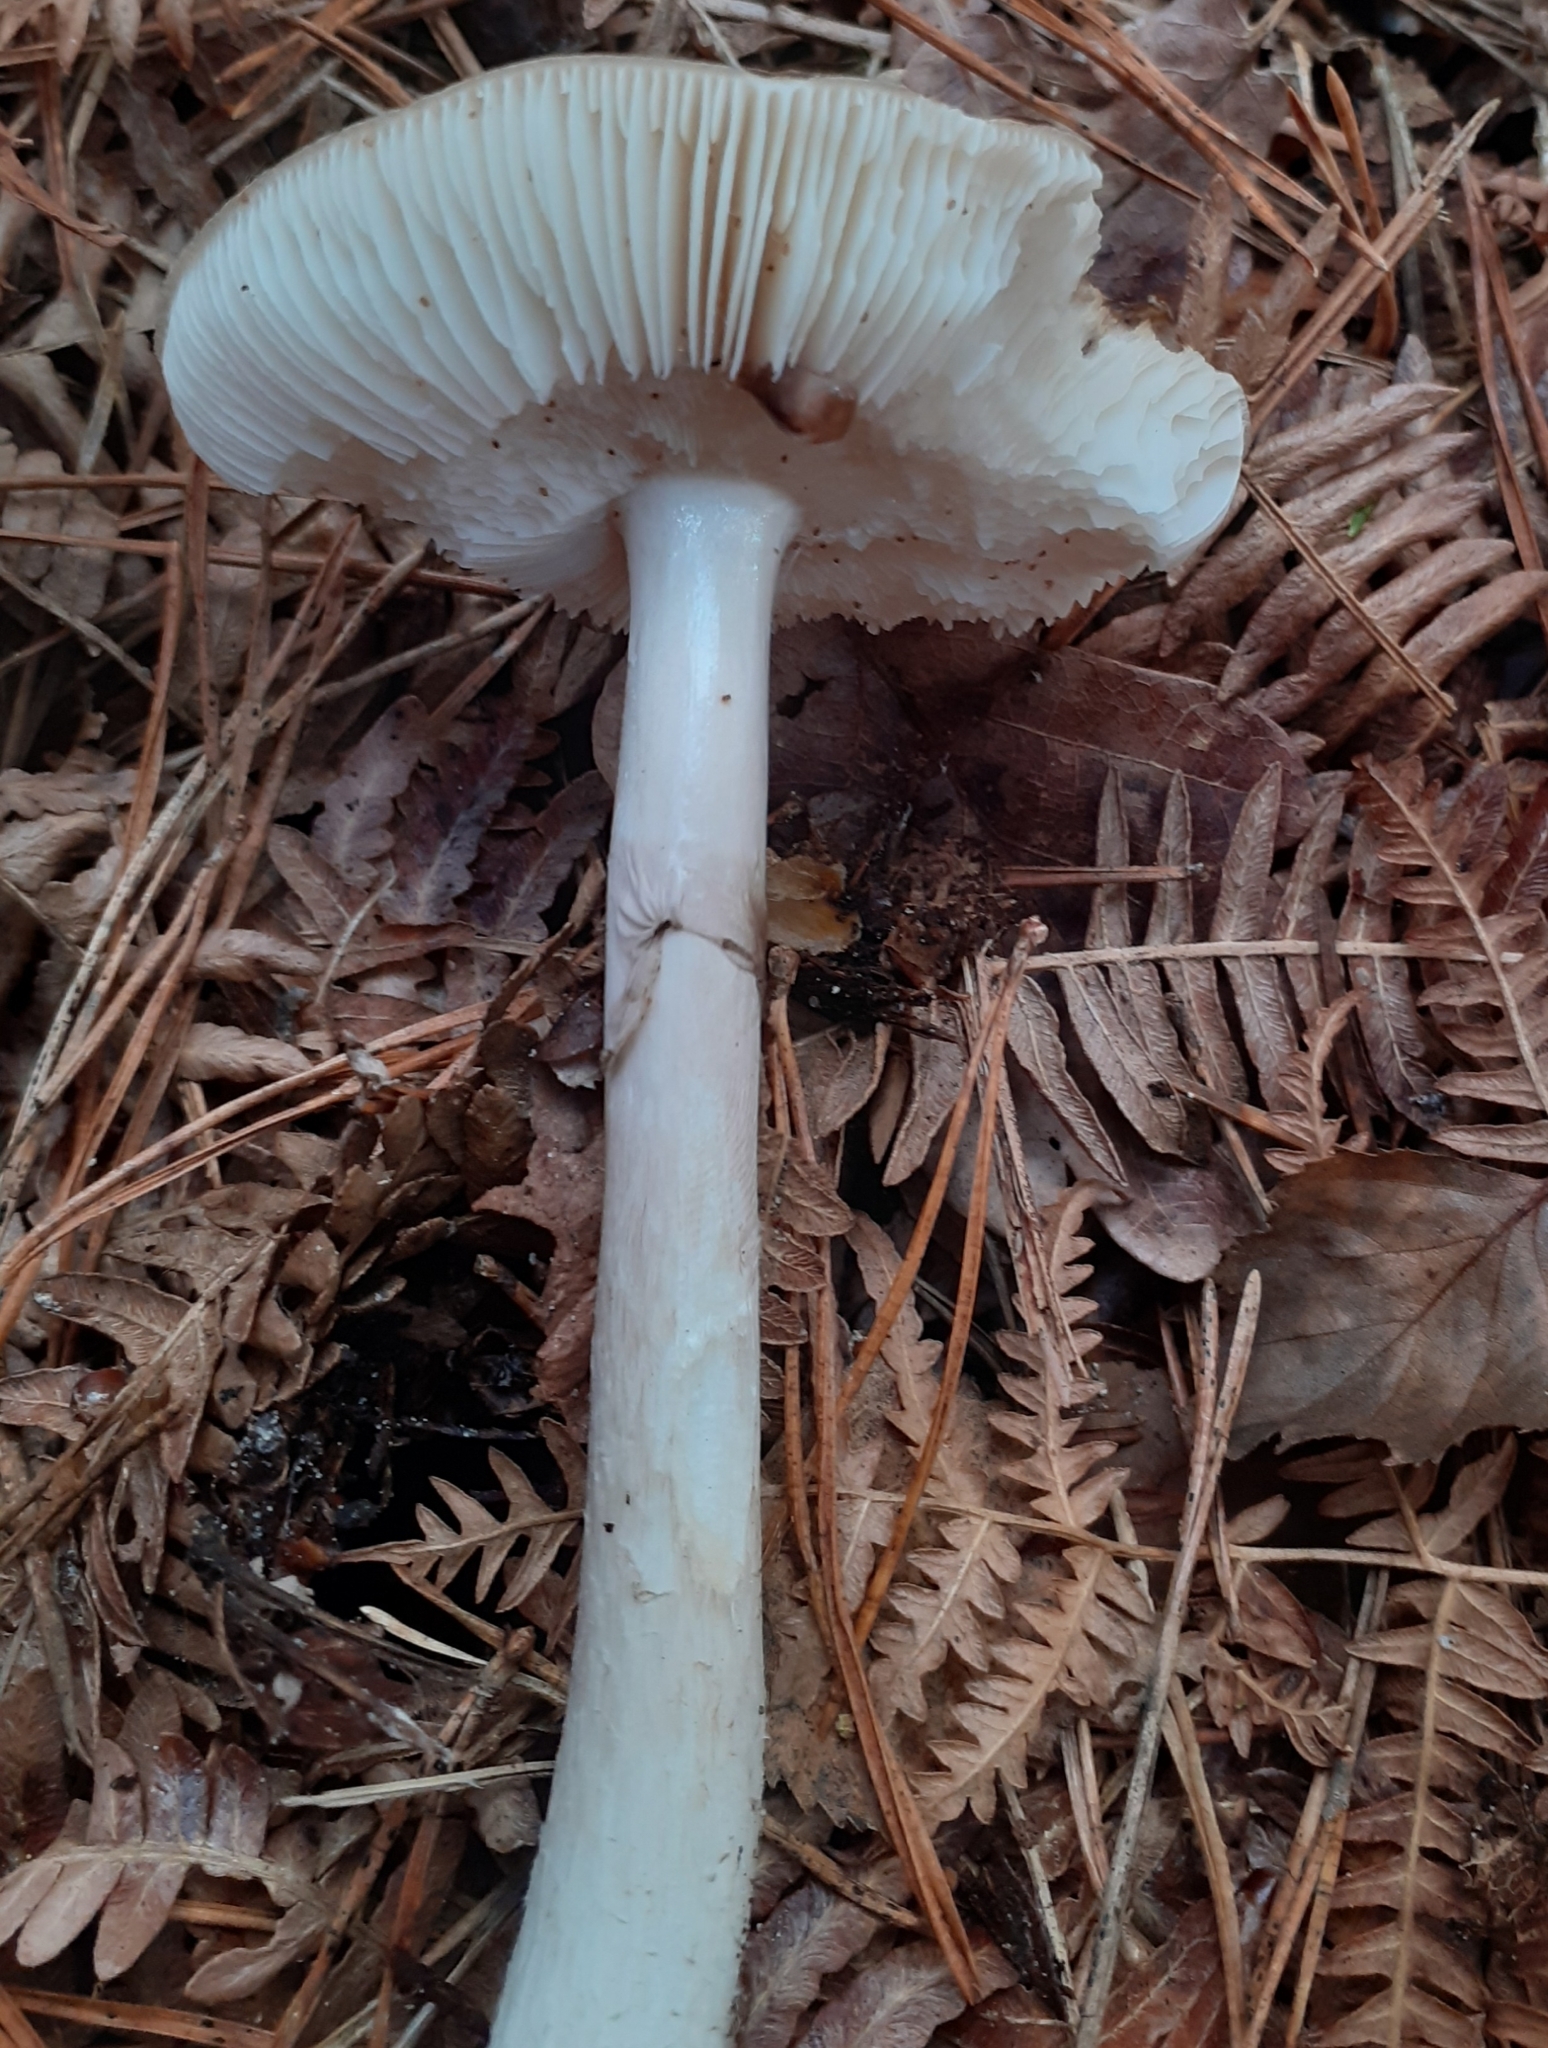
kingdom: Fungi
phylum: Basidiomycota
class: Agaricomycetes
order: Agaricales
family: Amanitaceae
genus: Amanita
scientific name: Amanita porphyria
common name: Grey veiled amanita
